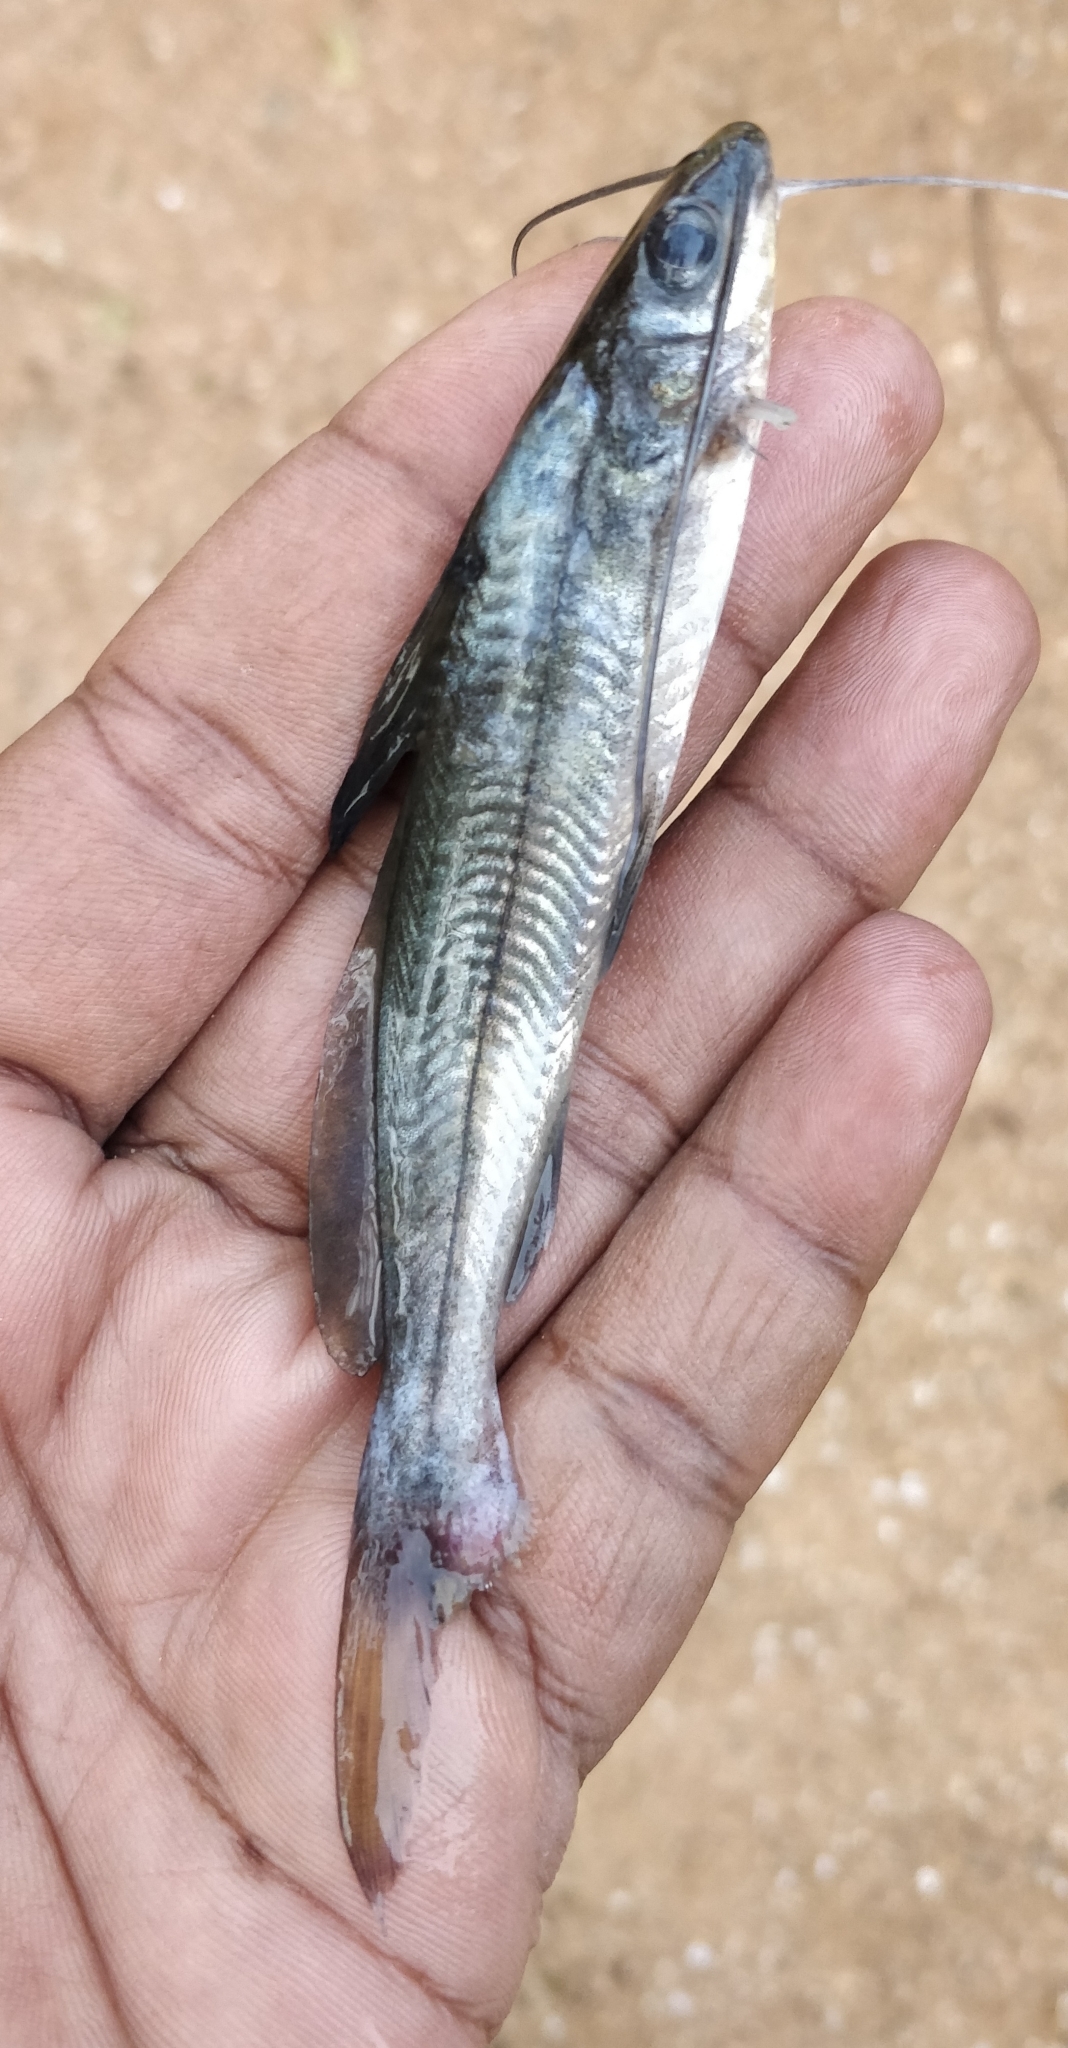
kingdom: Animalia
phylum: Chordata
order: Siluriformes
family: Bagridae
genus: Mystus
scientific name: Mystus cavasius
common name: Gangetic mystus
